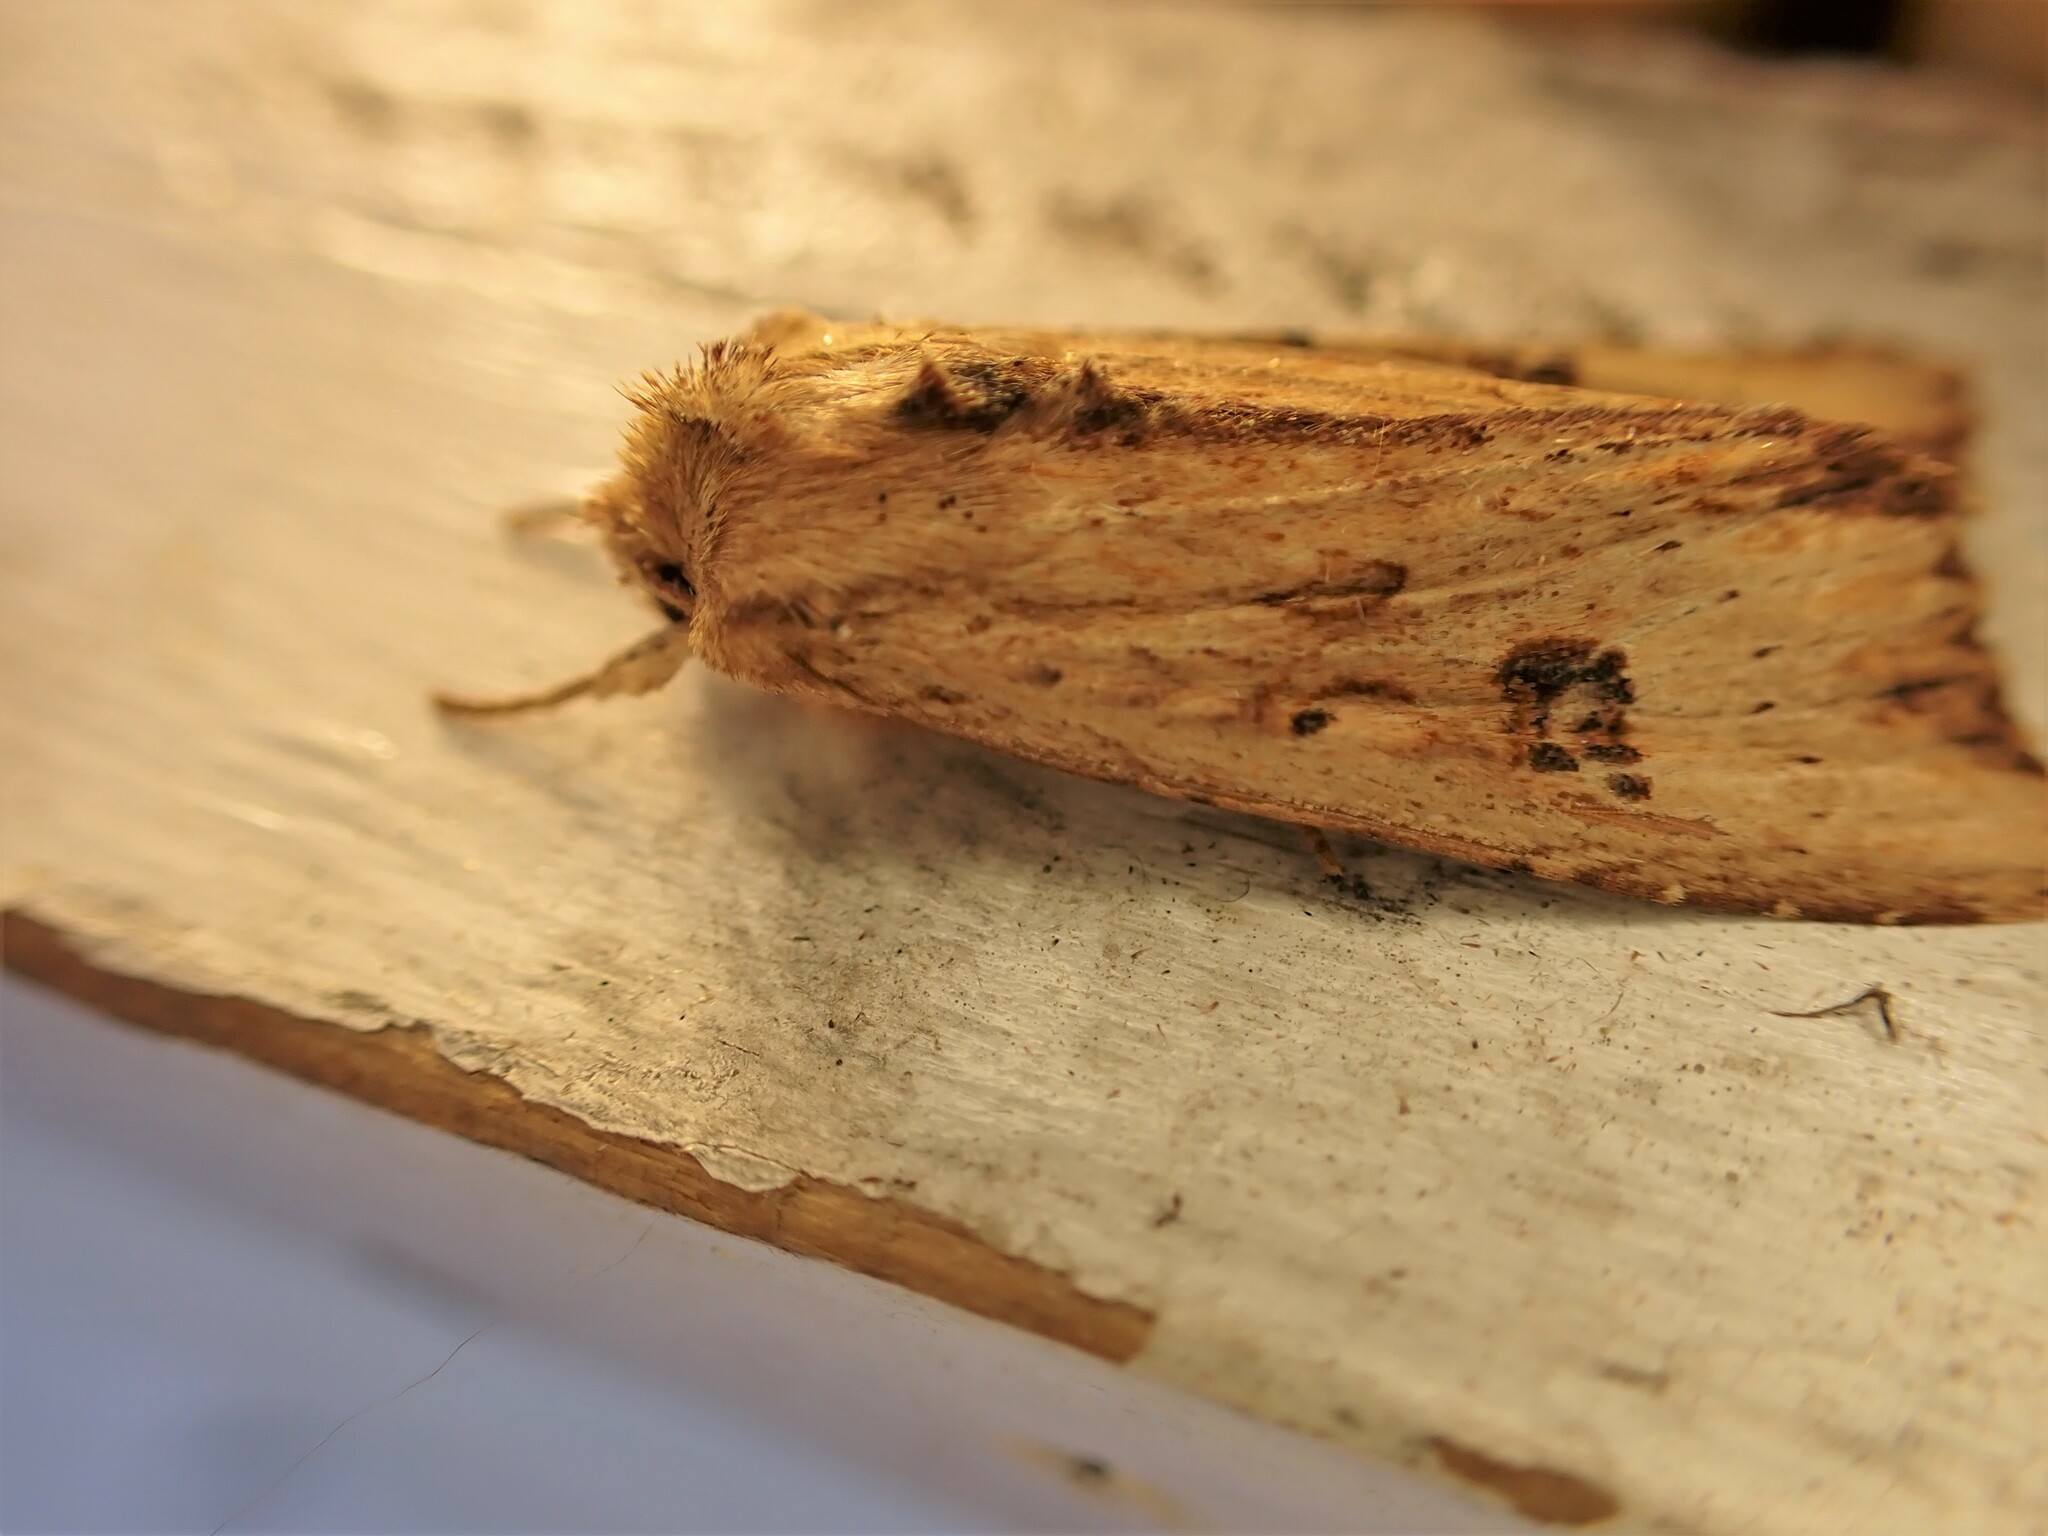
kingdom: Animalia
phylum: Arthropoda
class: Insecta
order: Lepidoptera
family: Noctuidae
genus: Ichneutica
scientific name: Ichneutica
